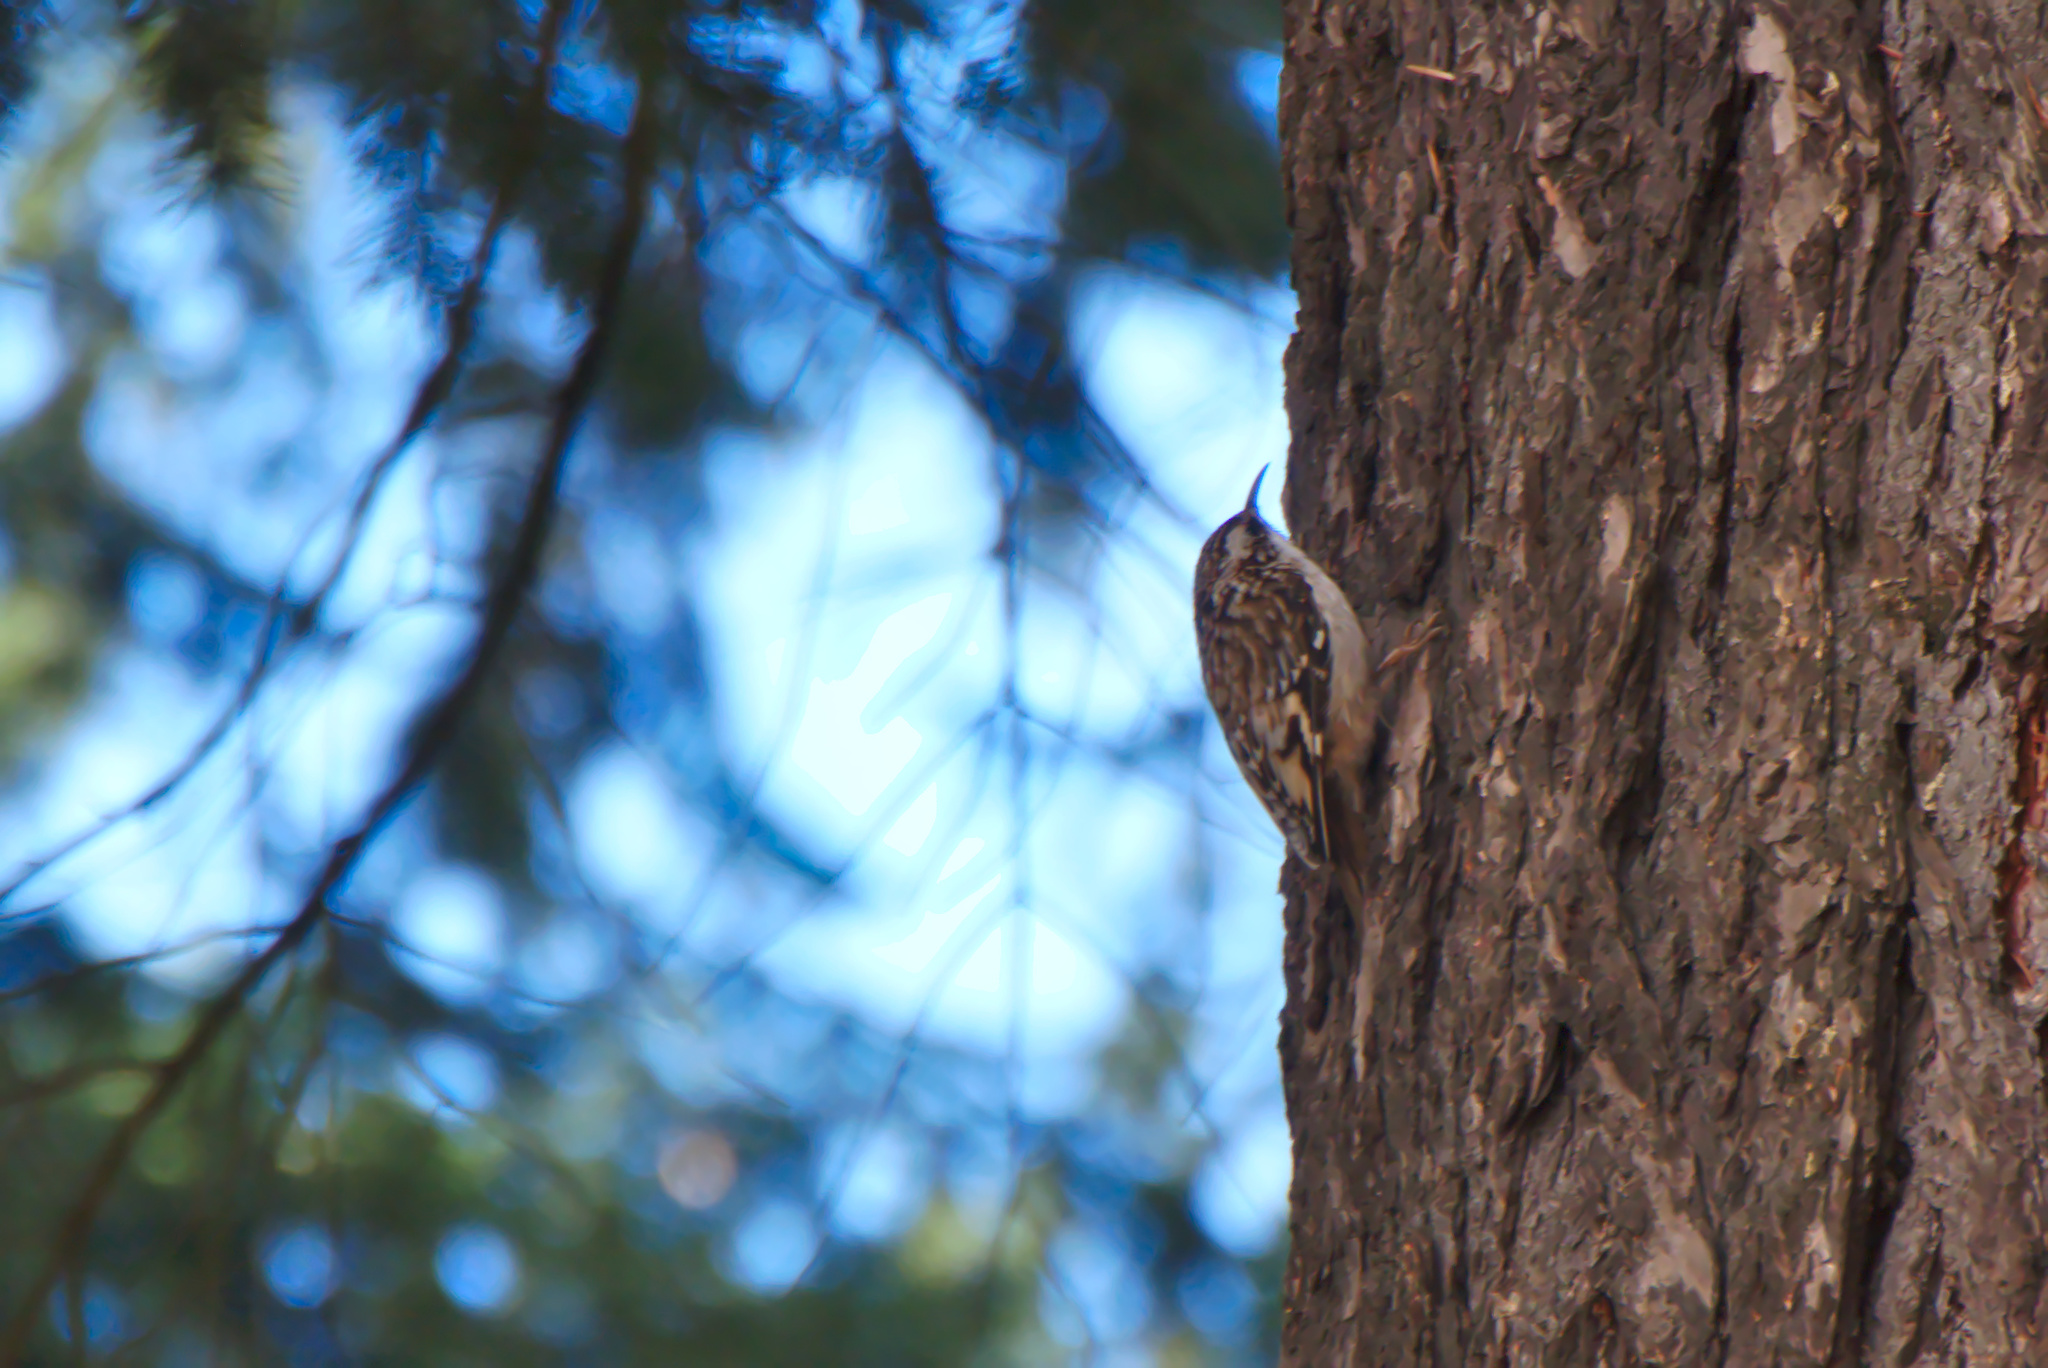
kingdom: Animalia
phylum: Chordata
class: Aves
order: Passeriformes
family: Certhiidae
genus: Certhia
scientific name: Certhia americana
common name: Brown creeper
